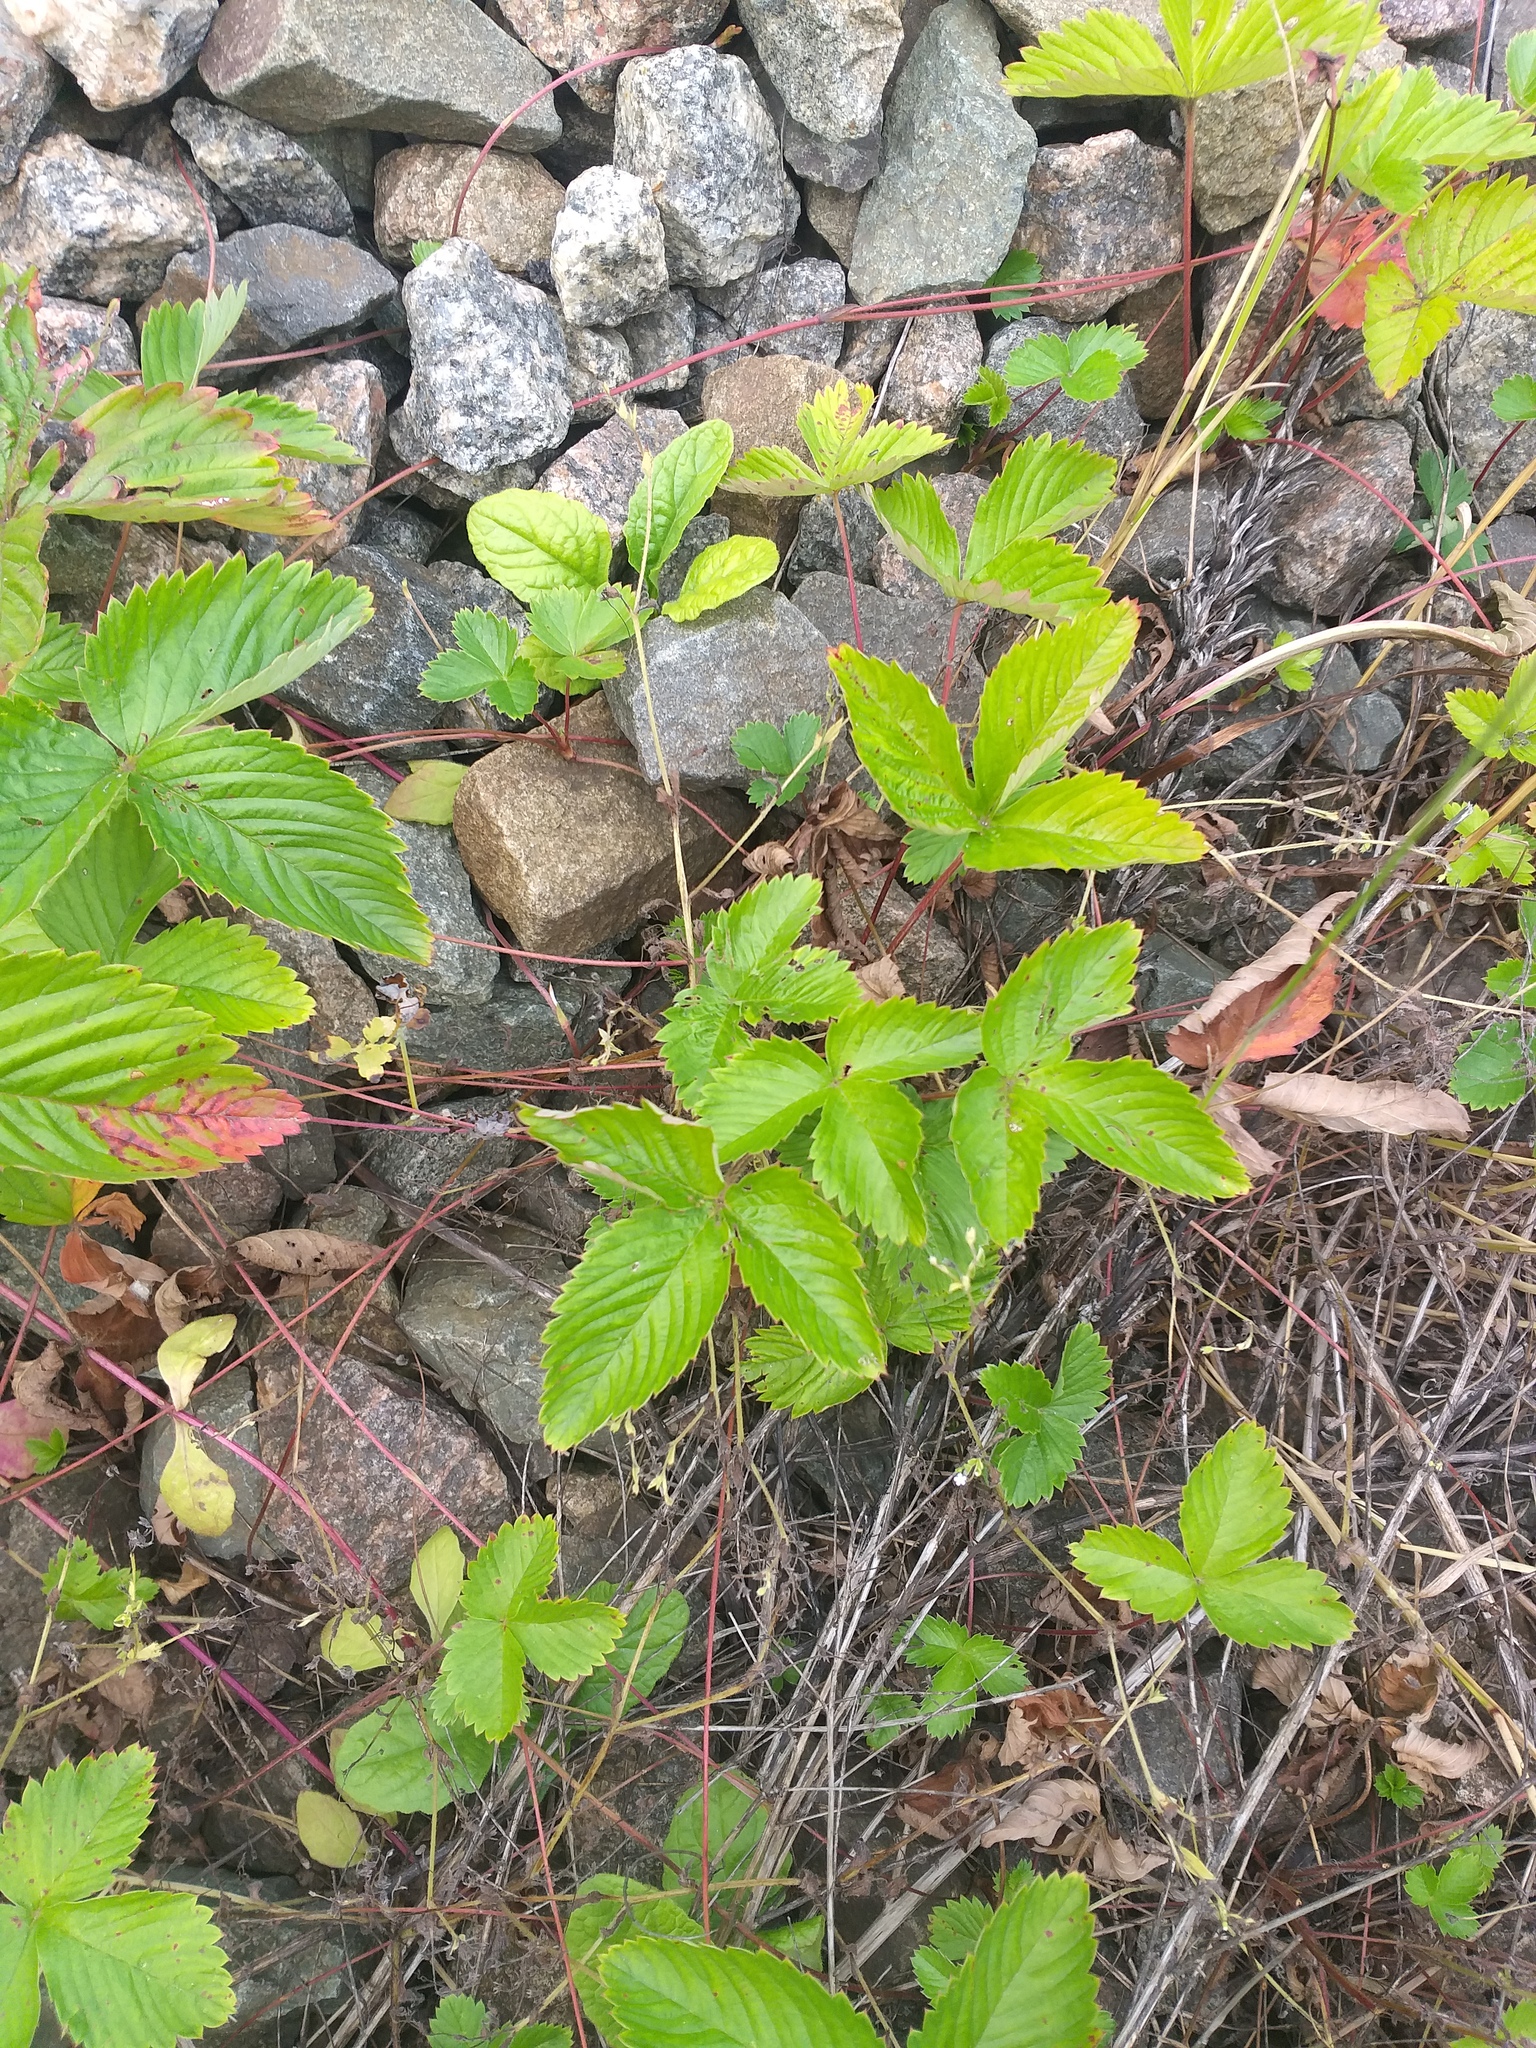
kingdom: Plantae
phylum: Tracheophyta
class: Magnoliopsida
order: Rosales
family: Rosaceae
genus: Fragaria
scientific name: Fragaria vesca
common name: Wild strawberry
